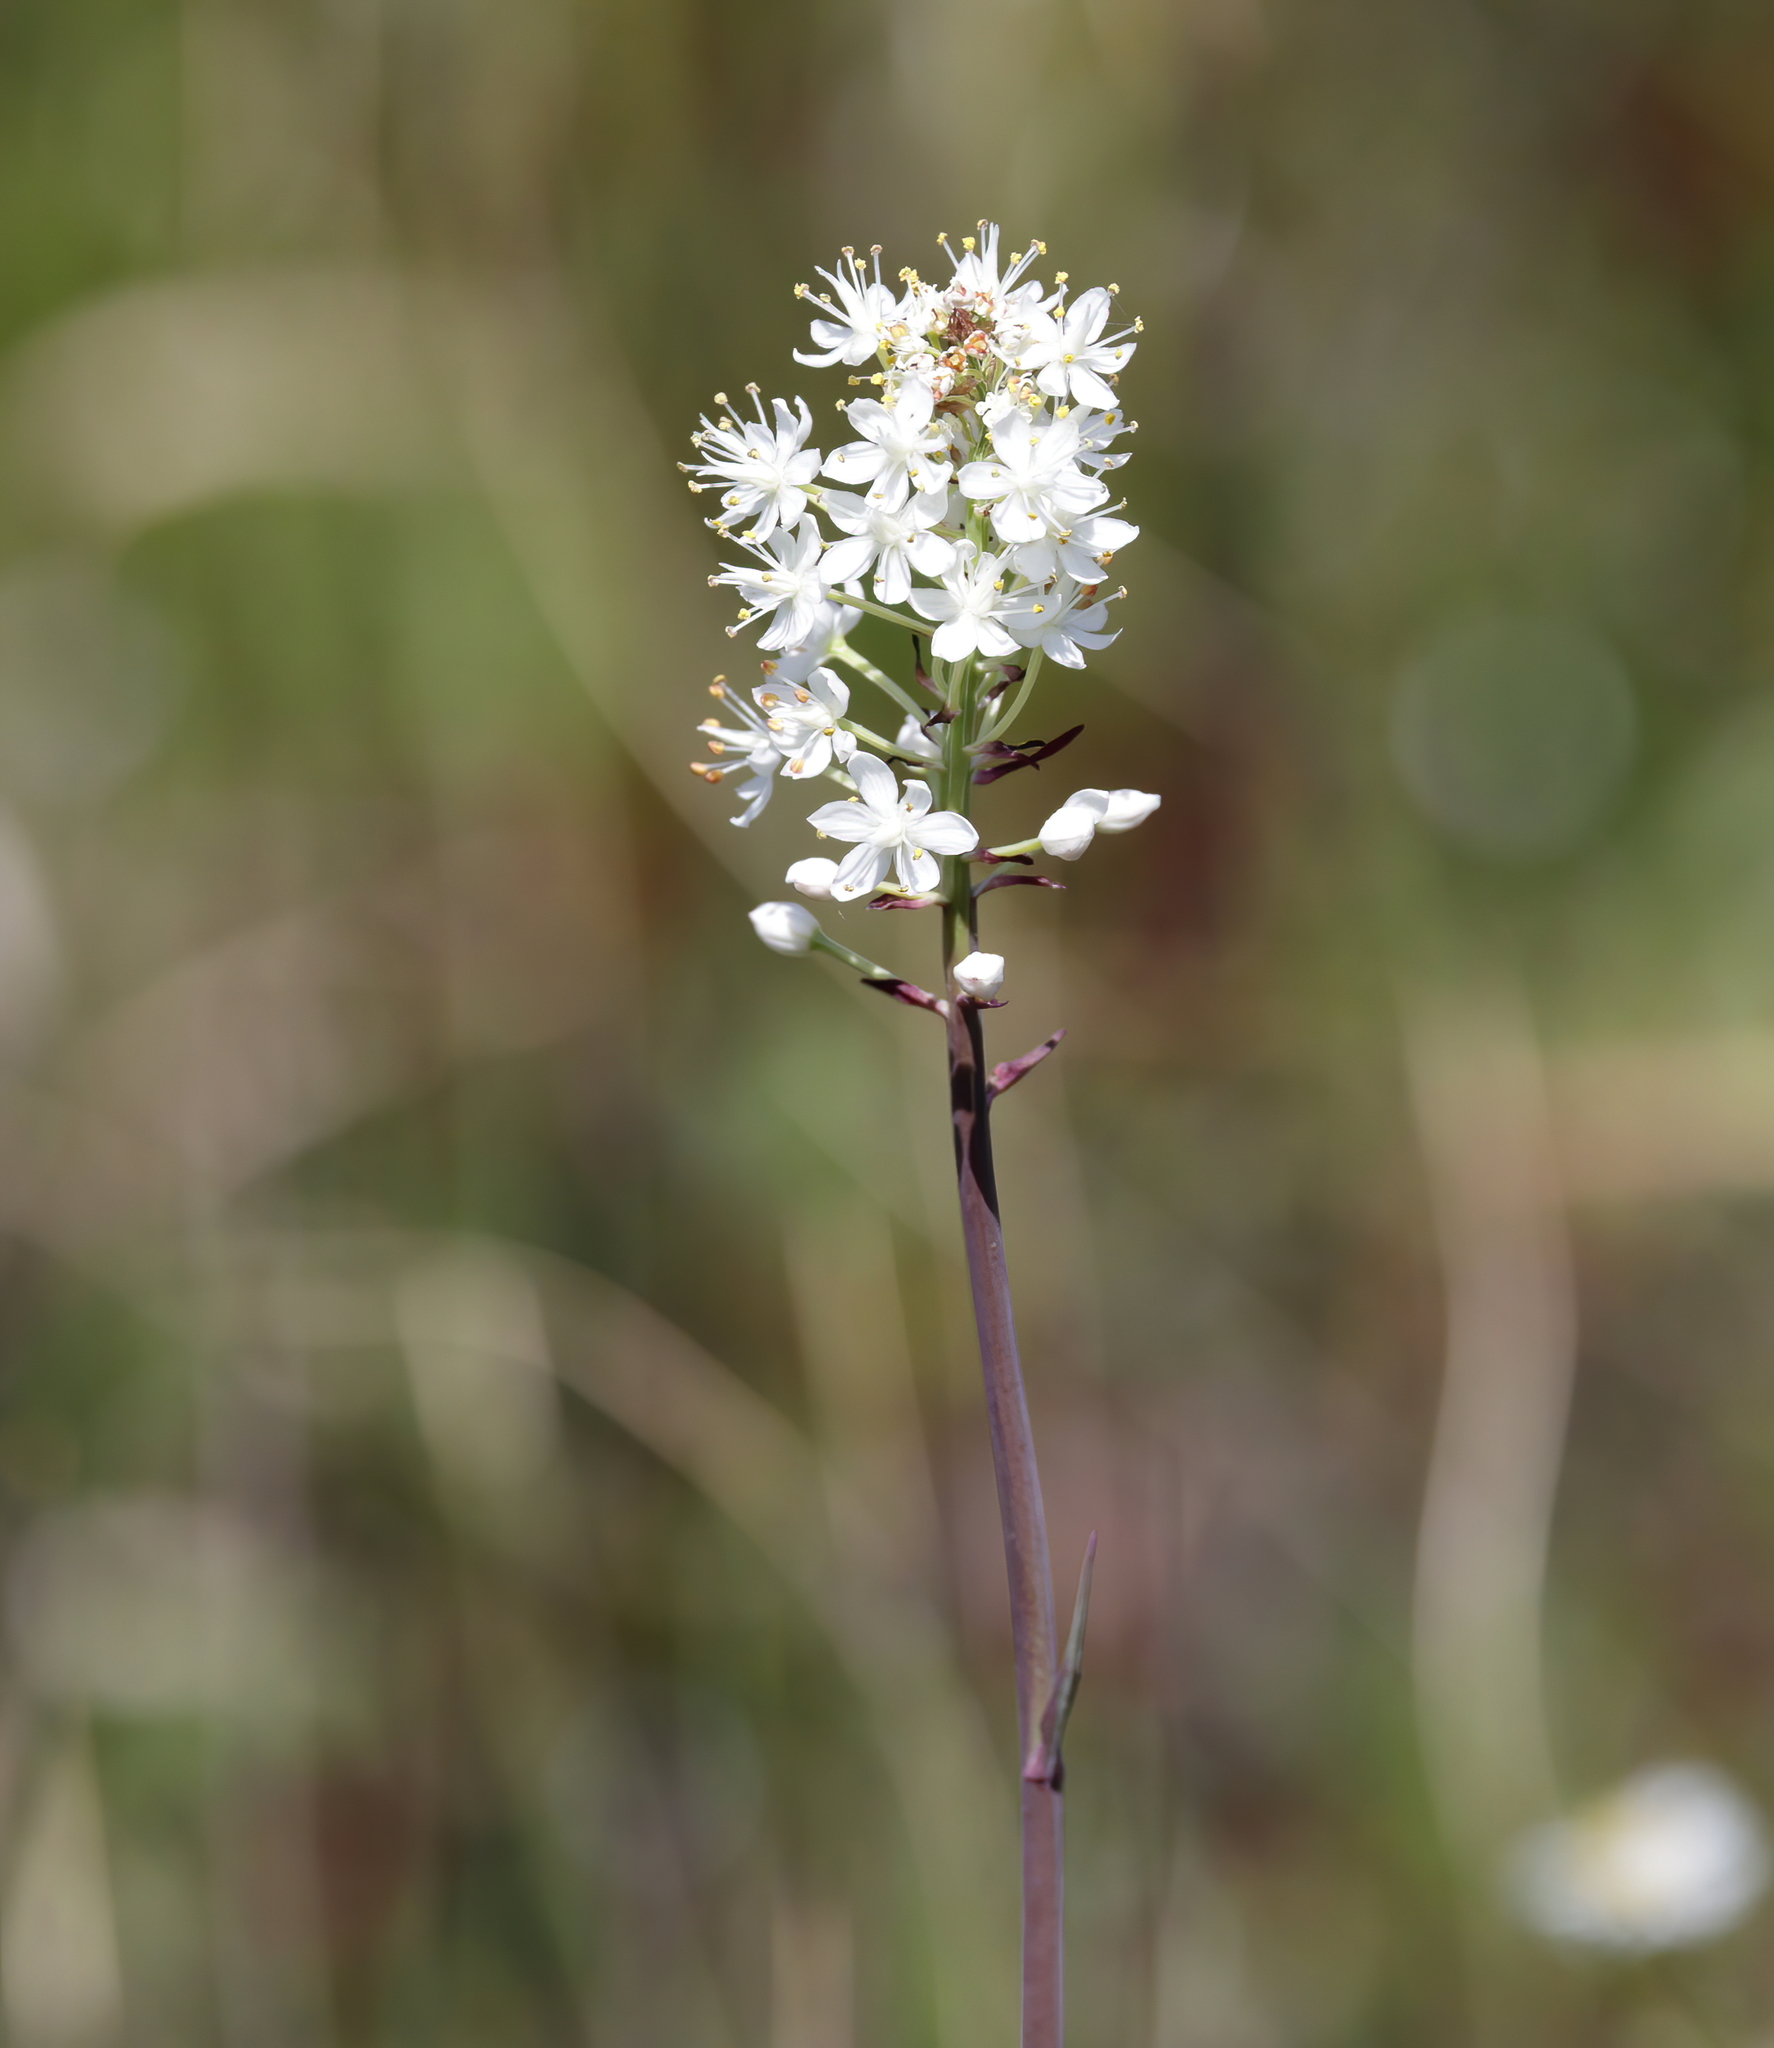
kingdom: Plantae
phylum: Tracheophyta
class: Liliopsida
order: Liliales
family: Melanthiaceae
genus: Stenanthium
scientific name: Stenanthium densum
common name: Crow-poison
